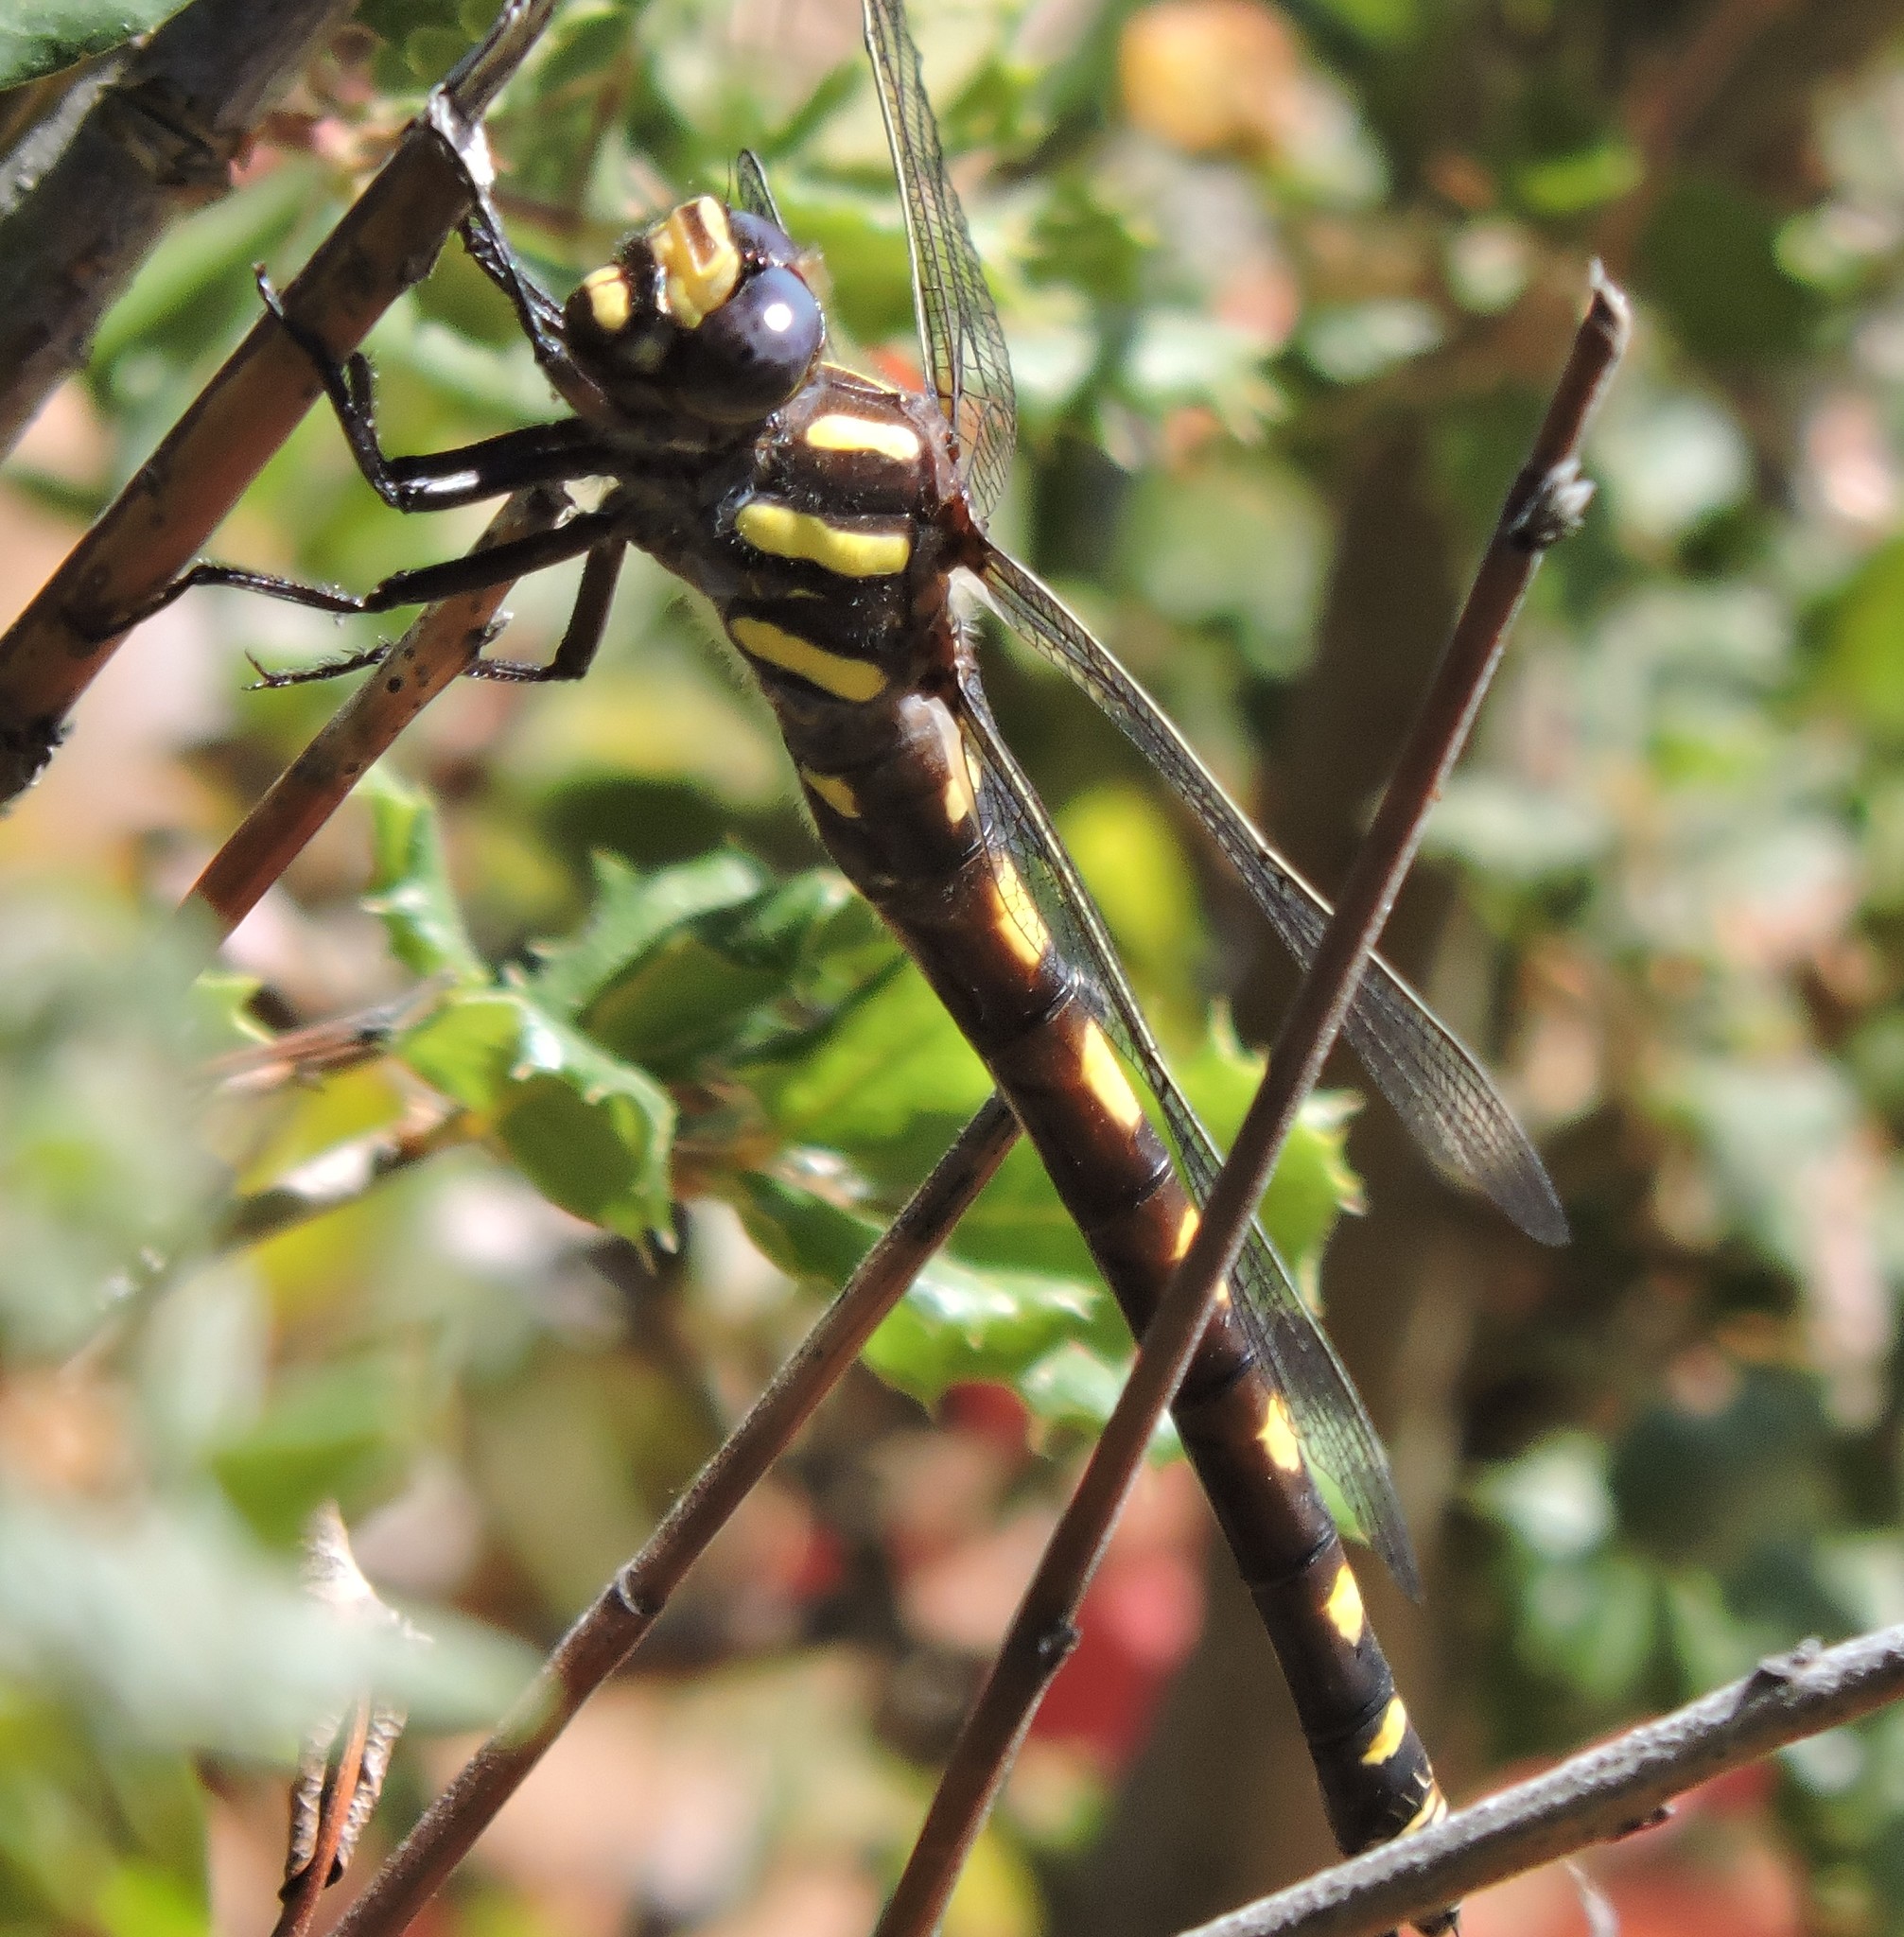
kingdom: Animalia
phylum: Arthropoda
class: Insecta
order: Odonata
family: Cordulegastridae
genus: Cordulegaster
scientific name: Cordulegaster dorsalis
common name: Pacific spiketail
